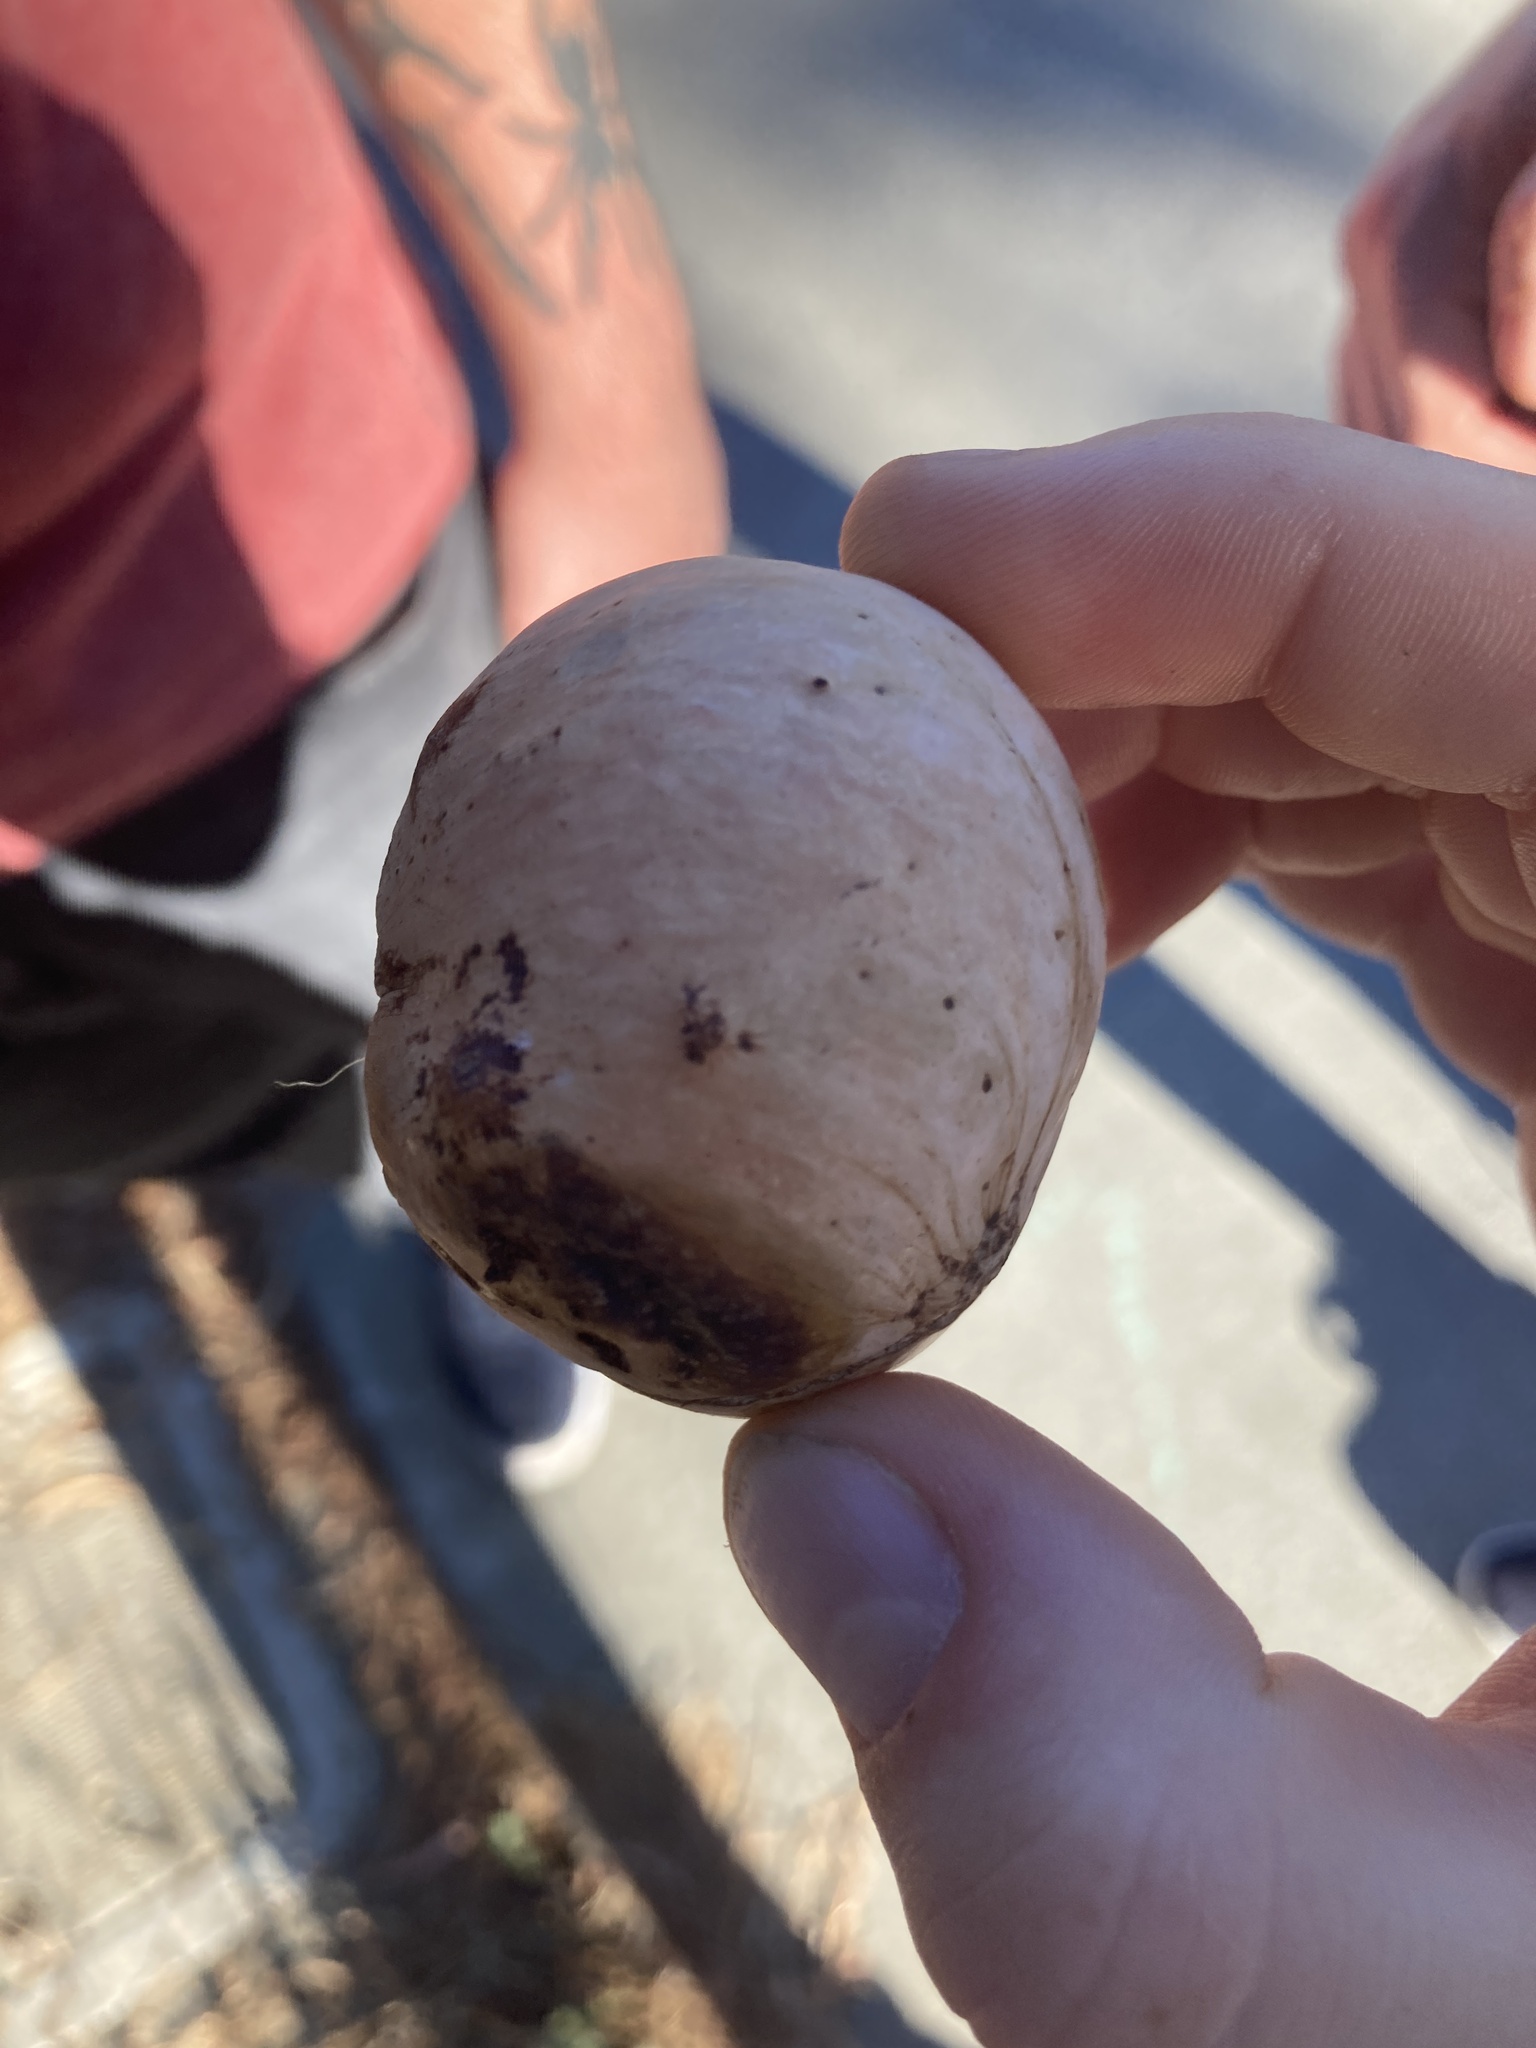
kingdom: Animalia
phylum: Arthropoda
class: Insecta
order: Hymenoptera
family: Cynipidae
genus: Andricus
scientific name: Andricus quercuscalifornicus
